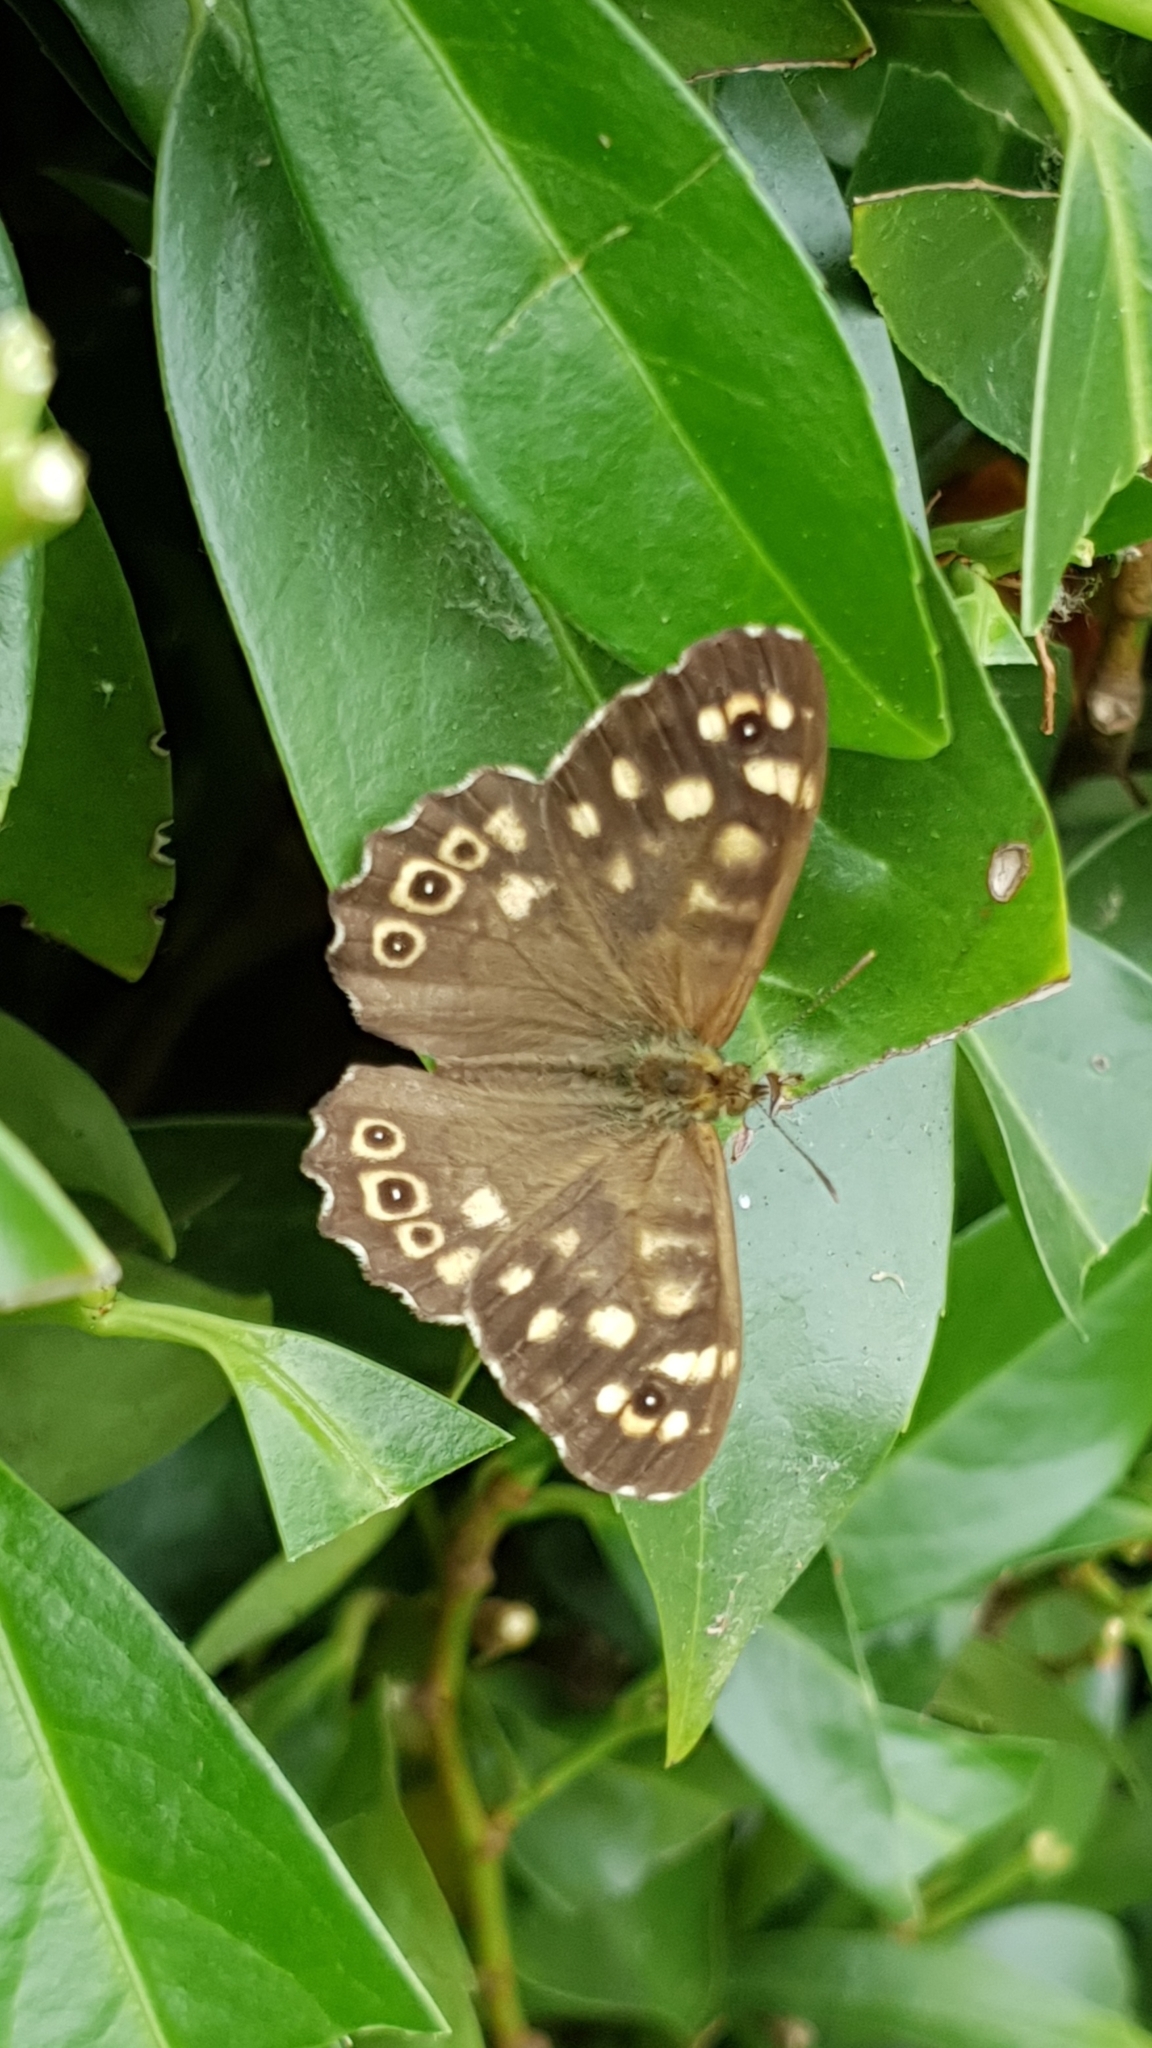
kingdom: Animalia
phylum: Arthropoda
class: Insecta
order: Lepidoptera
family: Nymphalidae
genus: Pararge
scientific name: Pararge aegeria
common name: Speckled wood
